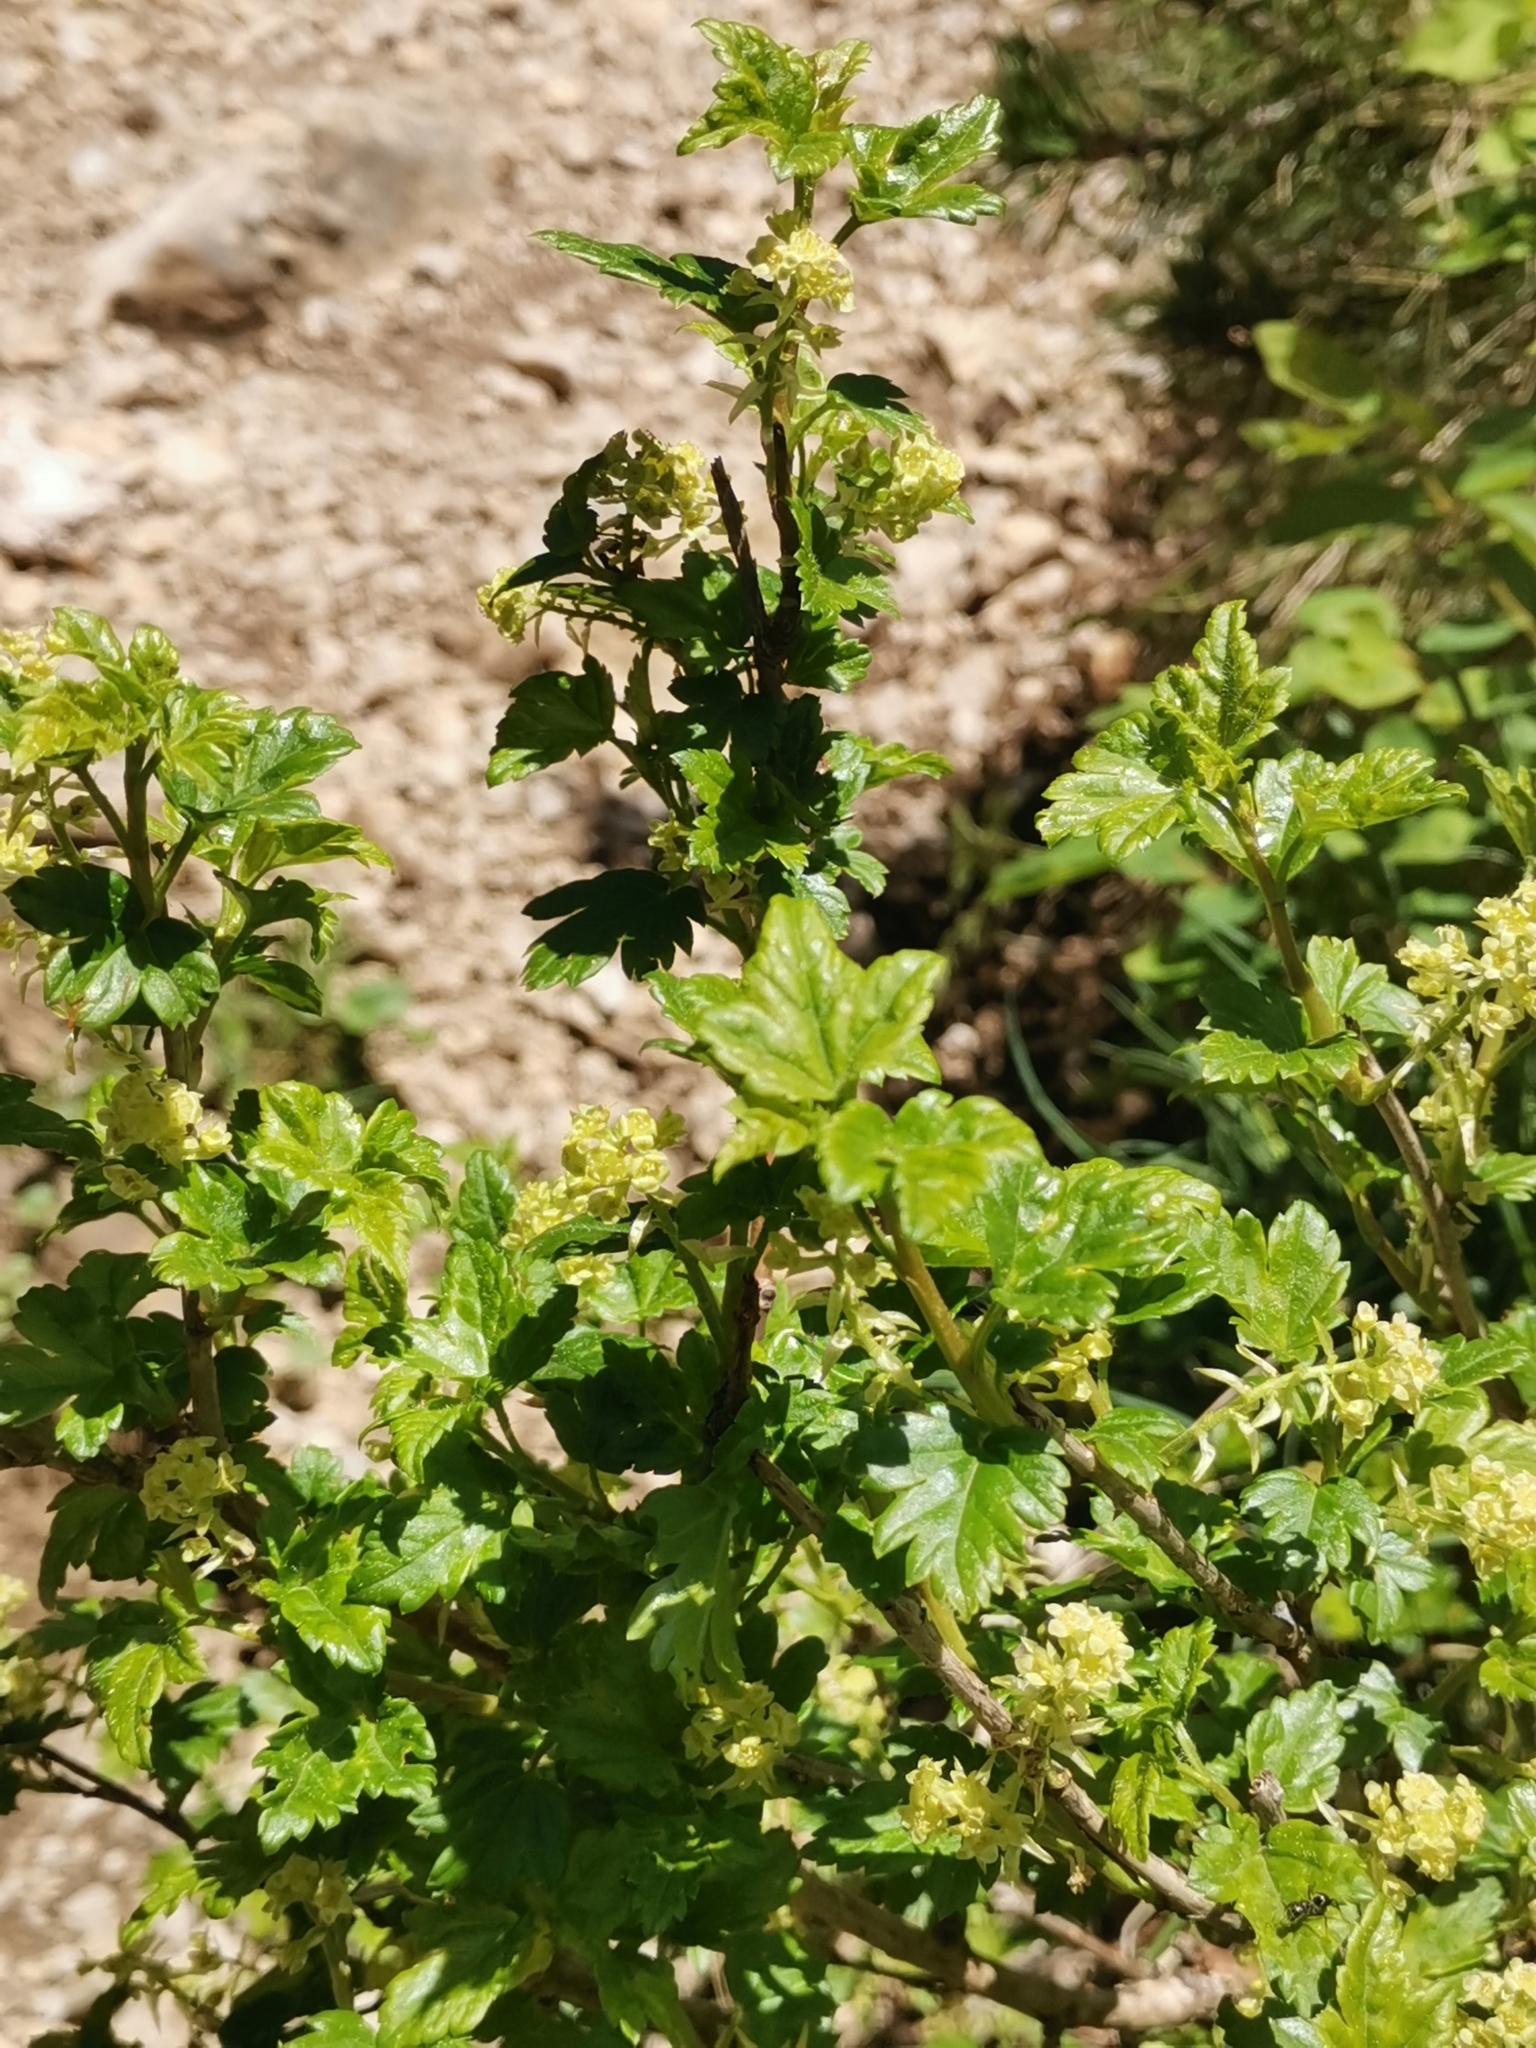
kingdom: Plantae
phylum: Tracheophyta
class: Magnoliopsida
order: Saxifragales
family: Grossulariaceae
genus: Ribes
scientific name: Ribes alpinum
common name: Alpine currant
